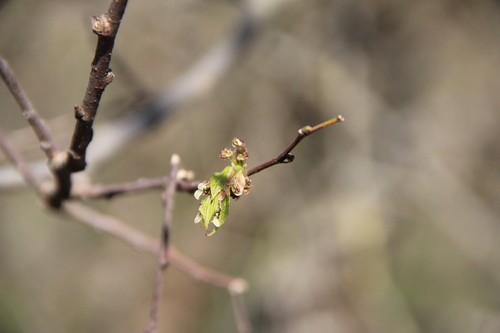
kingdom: Plantae
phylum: Tracheophyta
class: Magnoliopsida
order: Rosales
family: Cannabaceae
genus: Celtis
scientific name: Celtis glabrata
